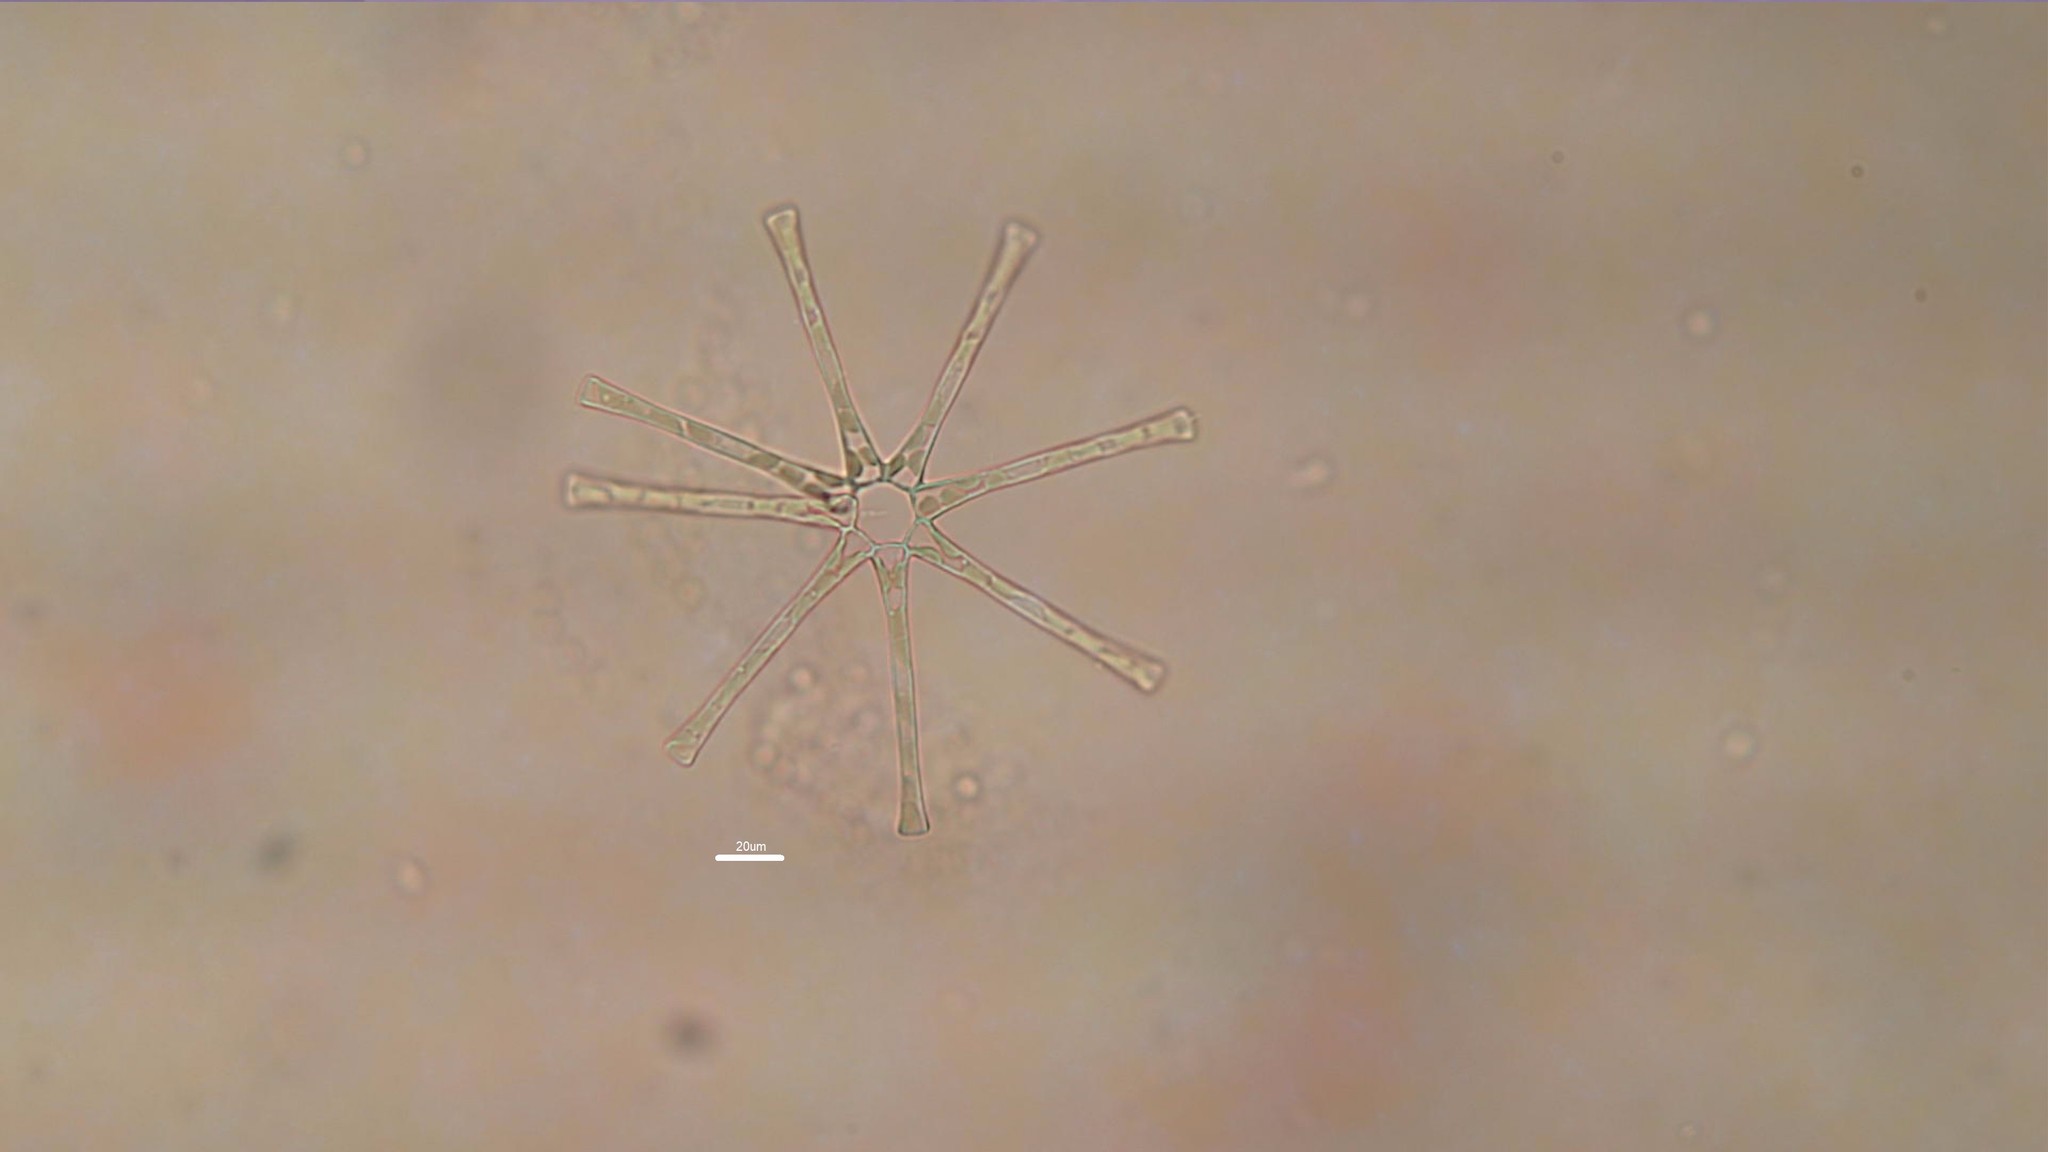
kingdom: Chromista
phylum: Ochrophyta
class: Bacillariophyceae
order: Fragilariales
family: Fragilariaceae
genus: Asterionella
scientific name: Asterionella formosa
